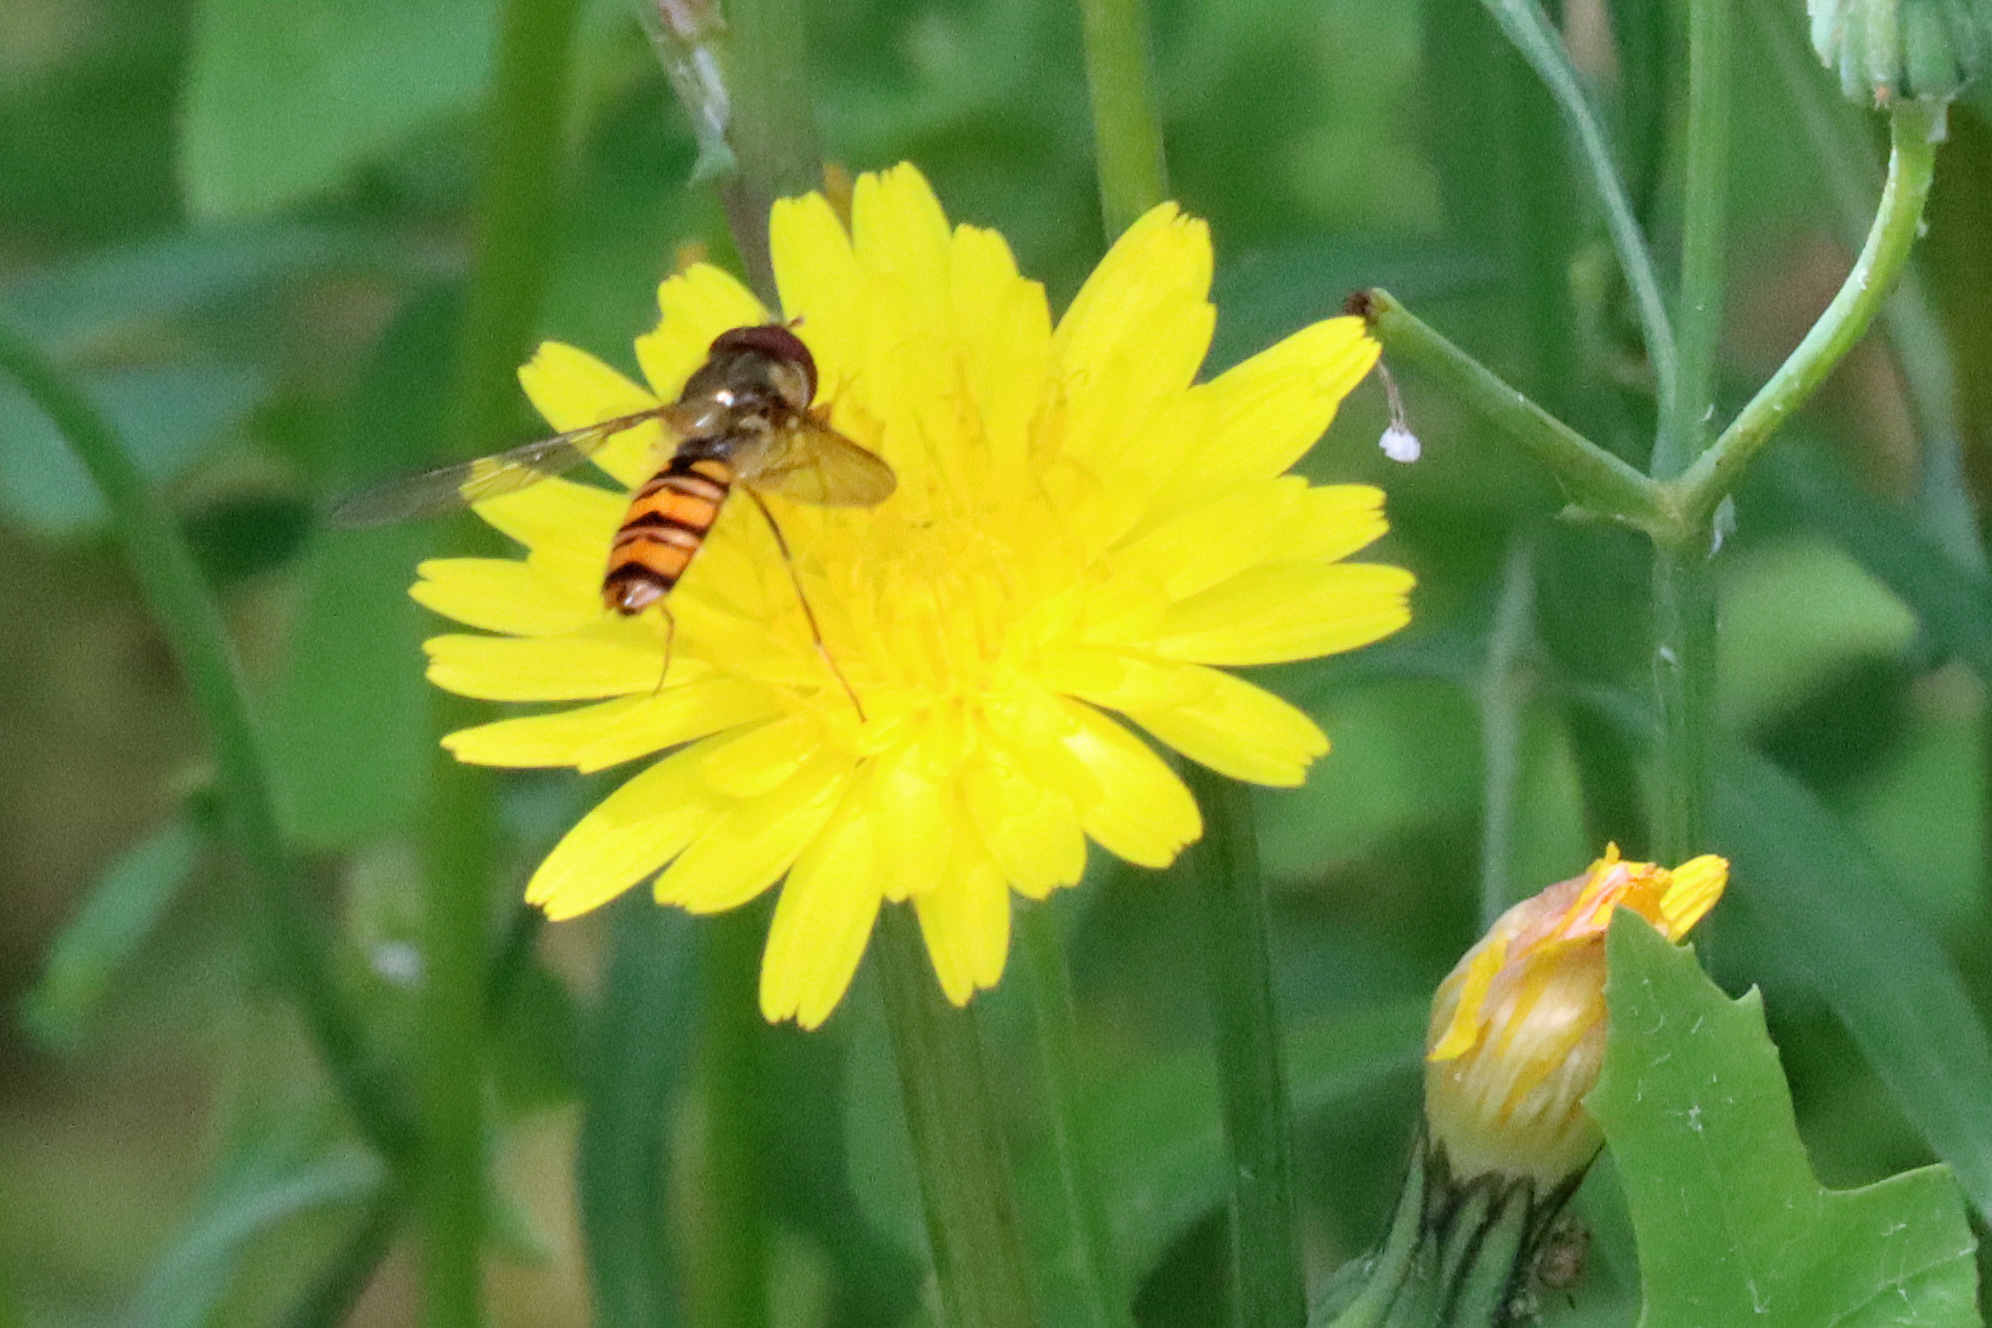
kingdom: Animalia
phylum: Arthropoda
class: Insecta
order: Diptera
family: Syrphidae
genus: Episyrphus
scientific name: Episyrphus balteatus
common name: Marmalade hoverfly
